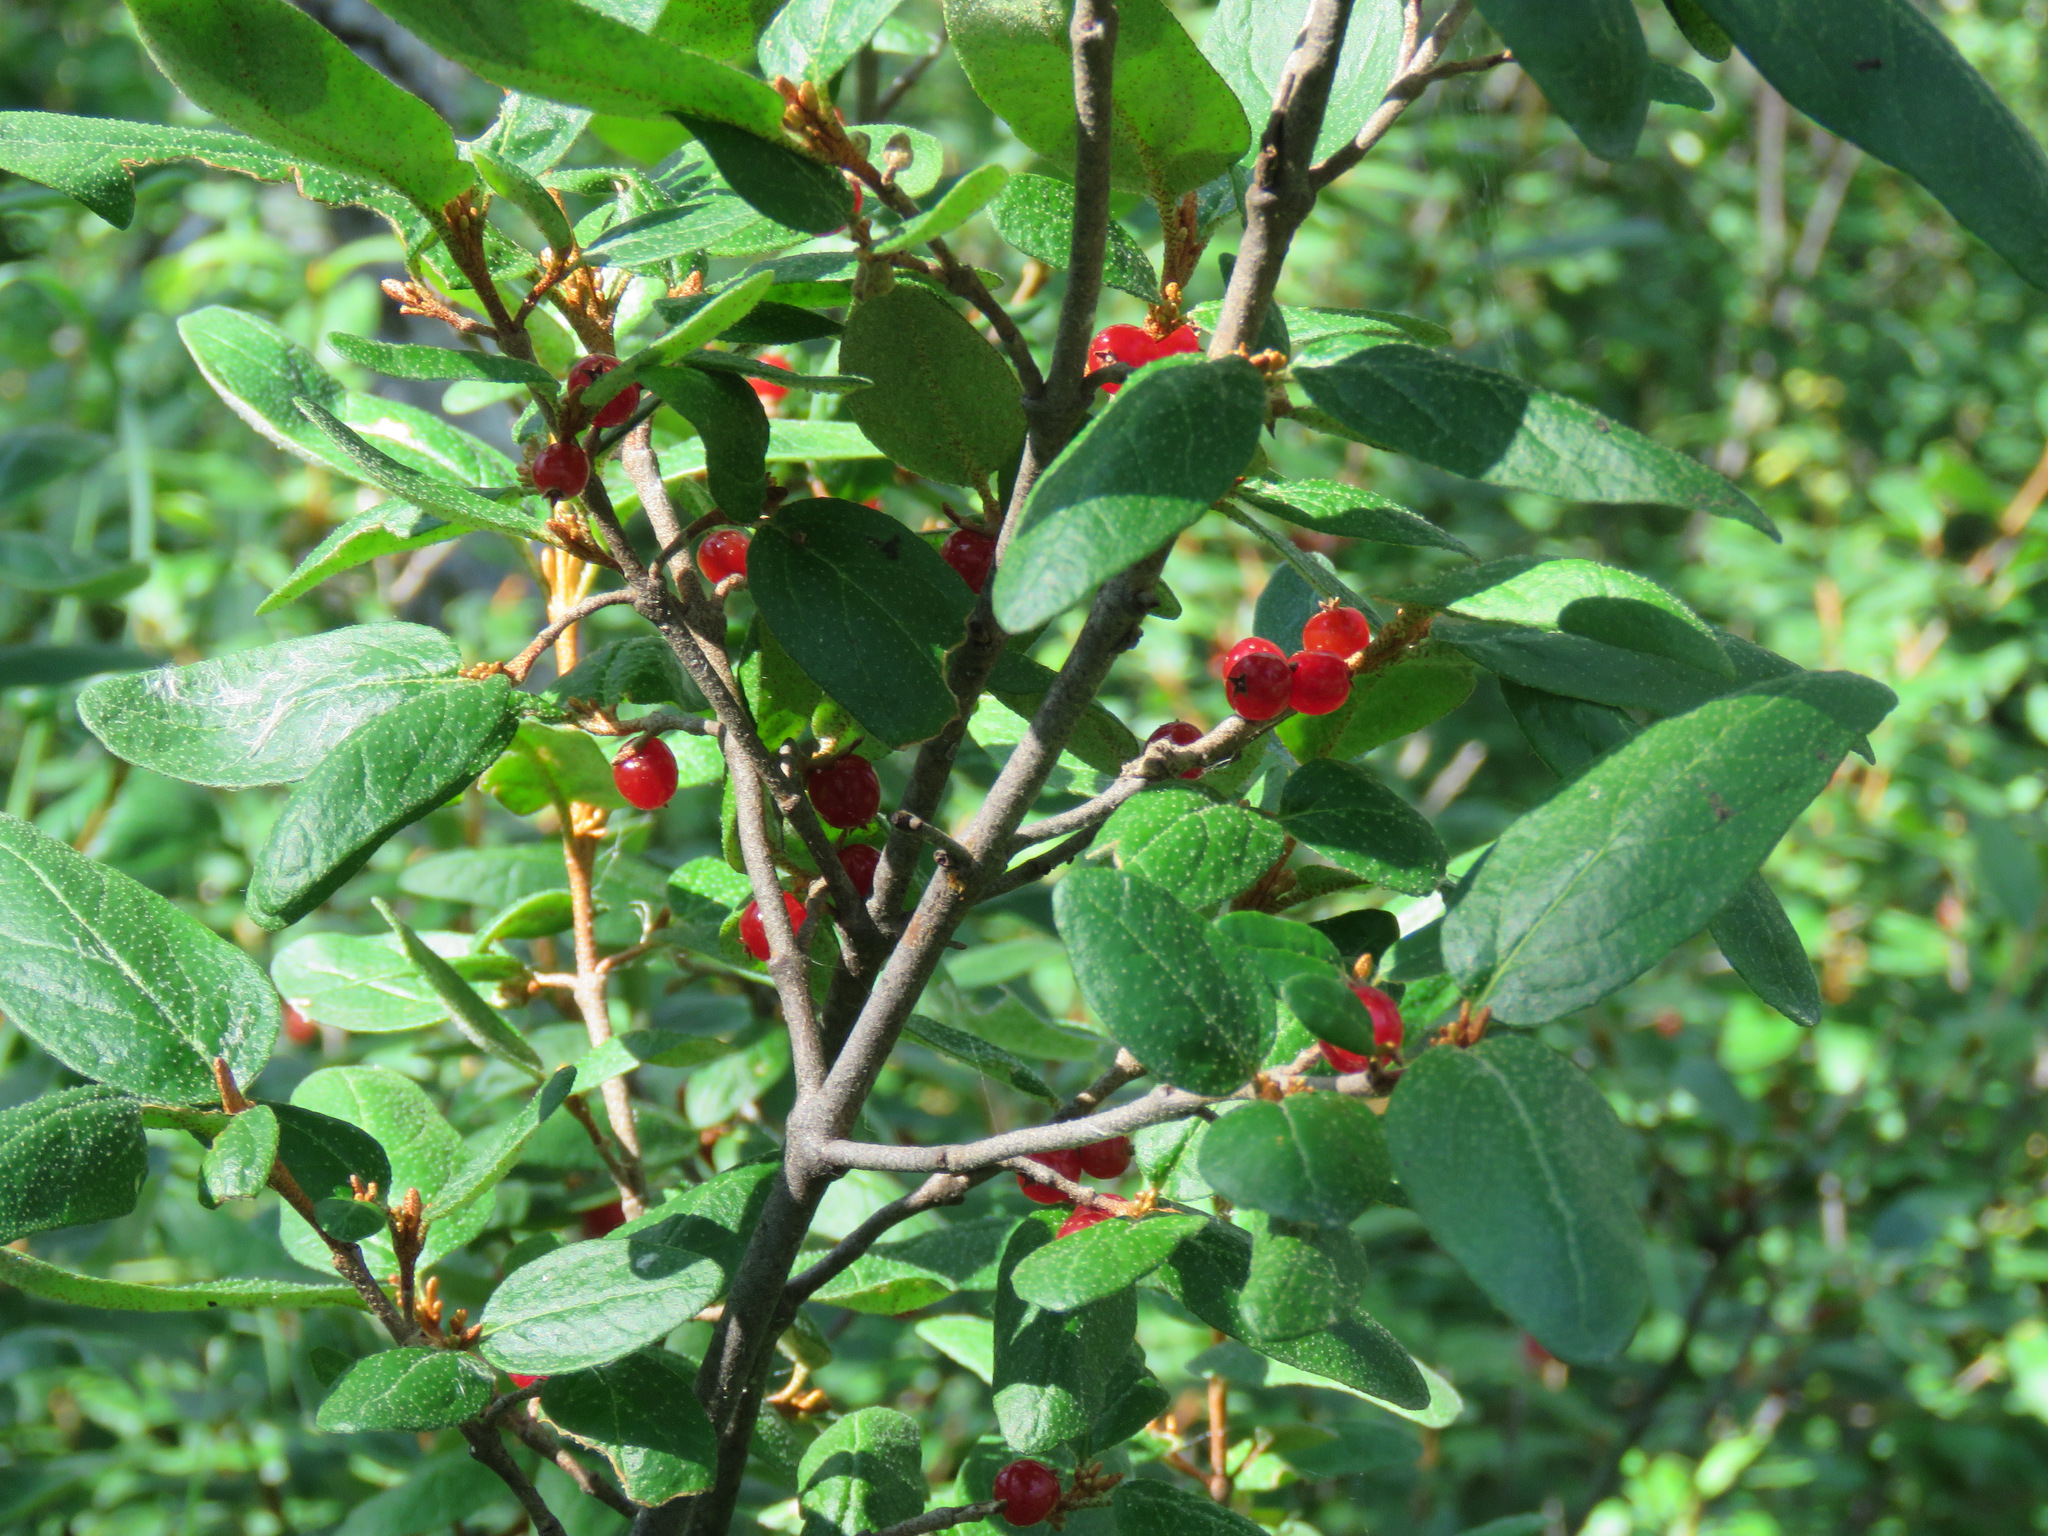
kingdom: Plantae
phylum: Tracheophyta
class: Magnoliopsida
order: Rosales
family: Elaeagnaceae
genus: Shepherdia
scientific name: Shepherdia canadensis
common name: Soapberry
